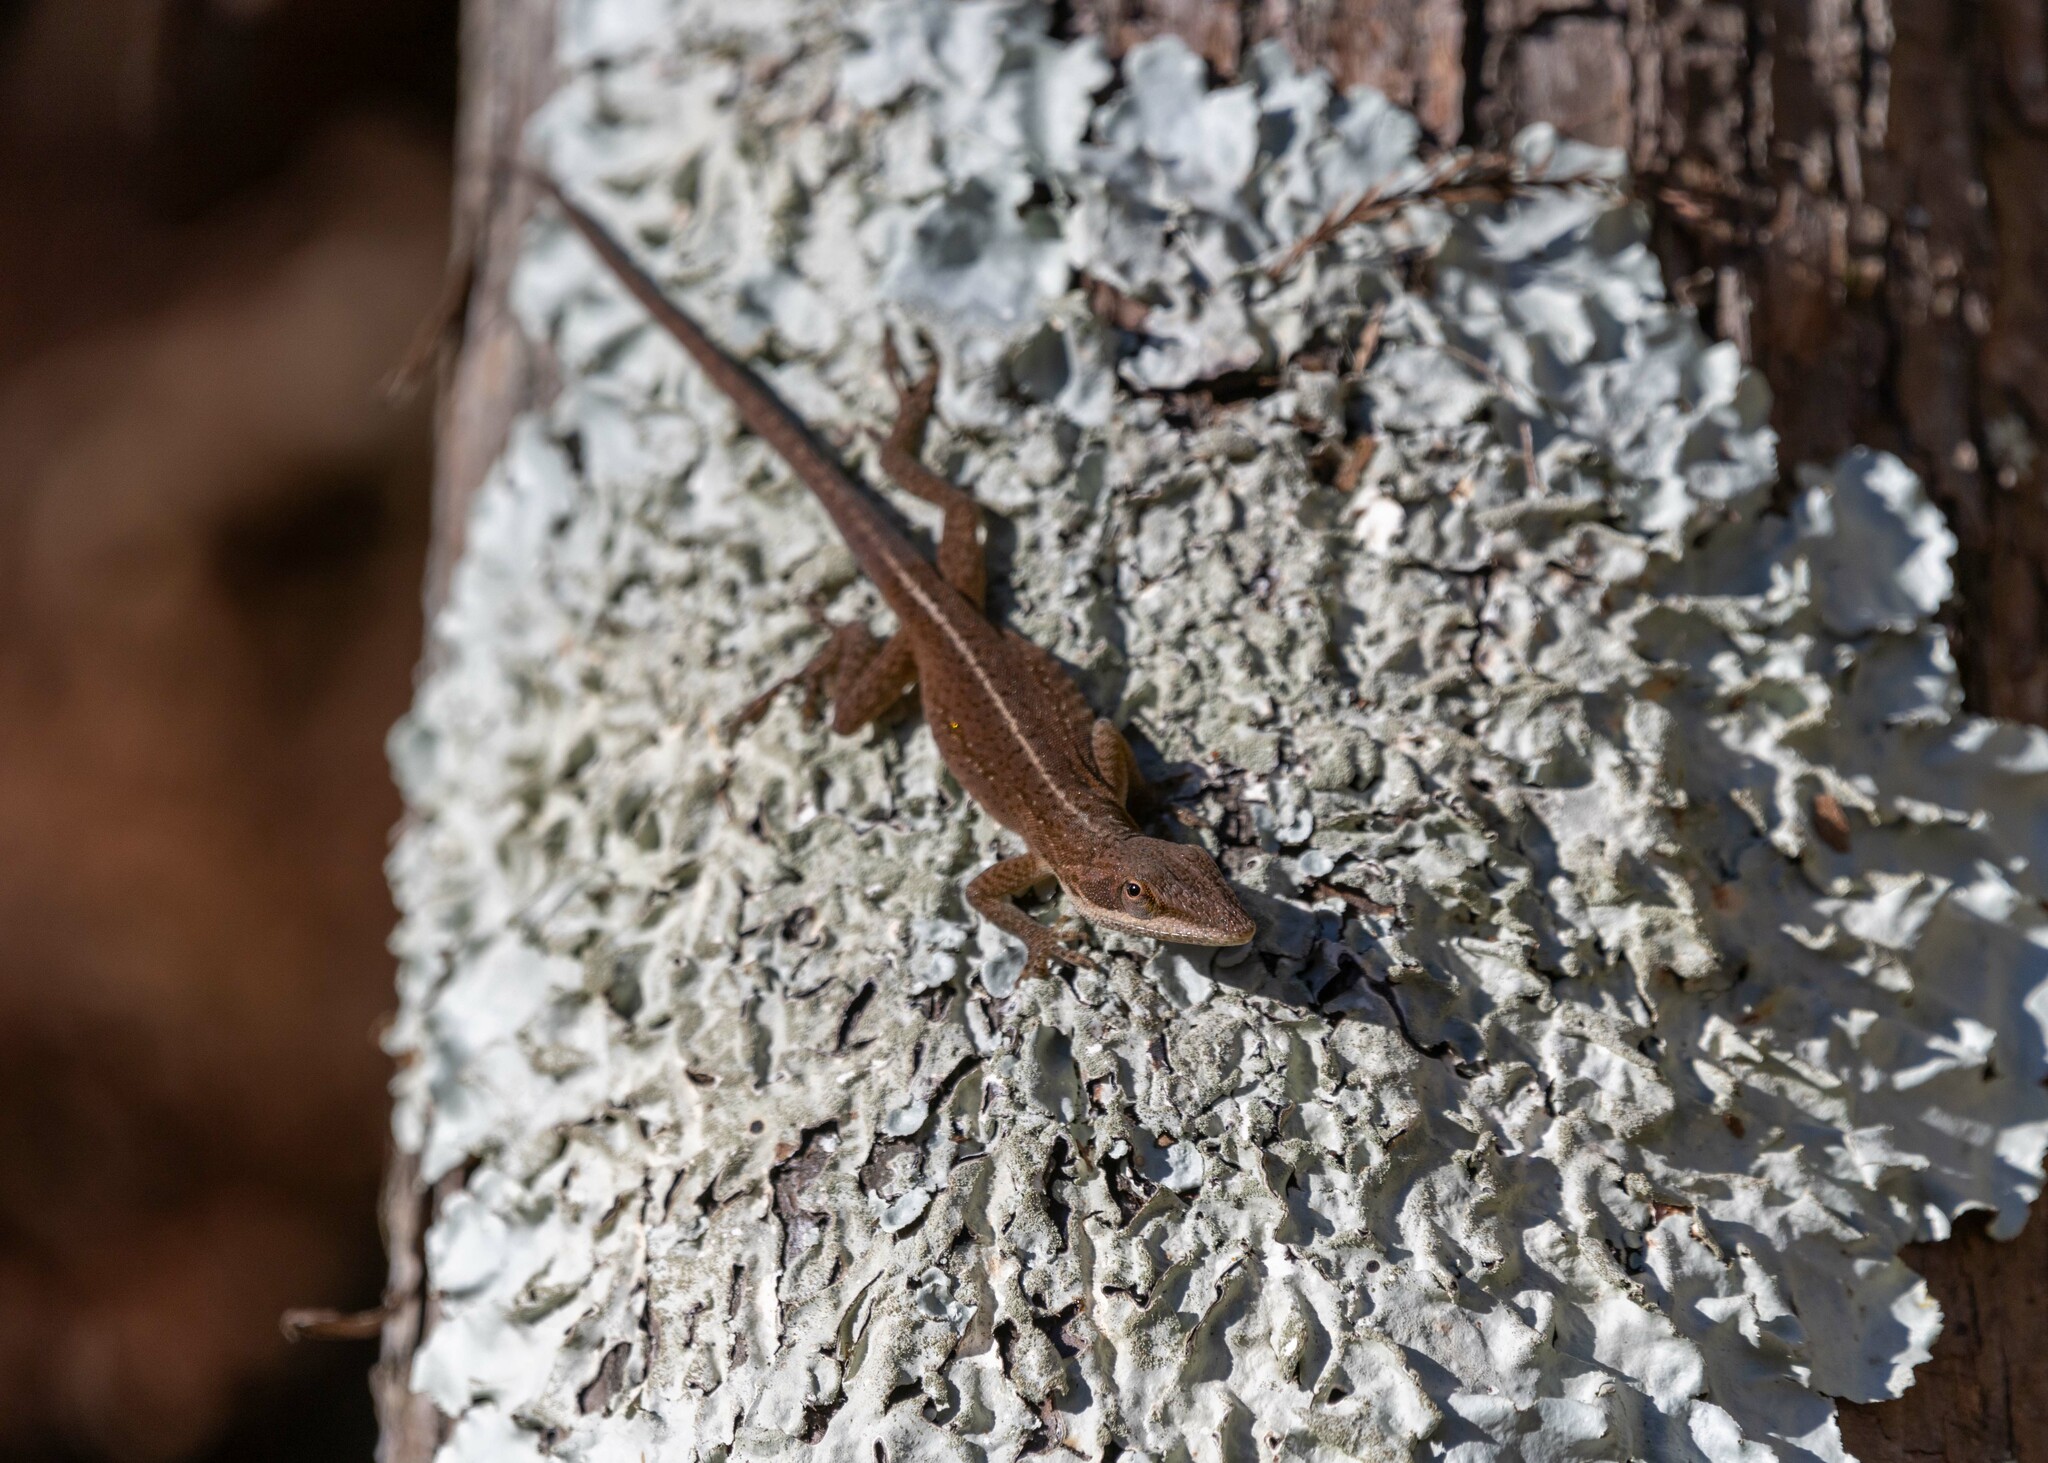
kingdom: Animalia
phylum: Chordata
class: Squamata
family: Dactyloidae
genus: Anolis
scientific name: Anolis carolinensis
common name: Green anole
